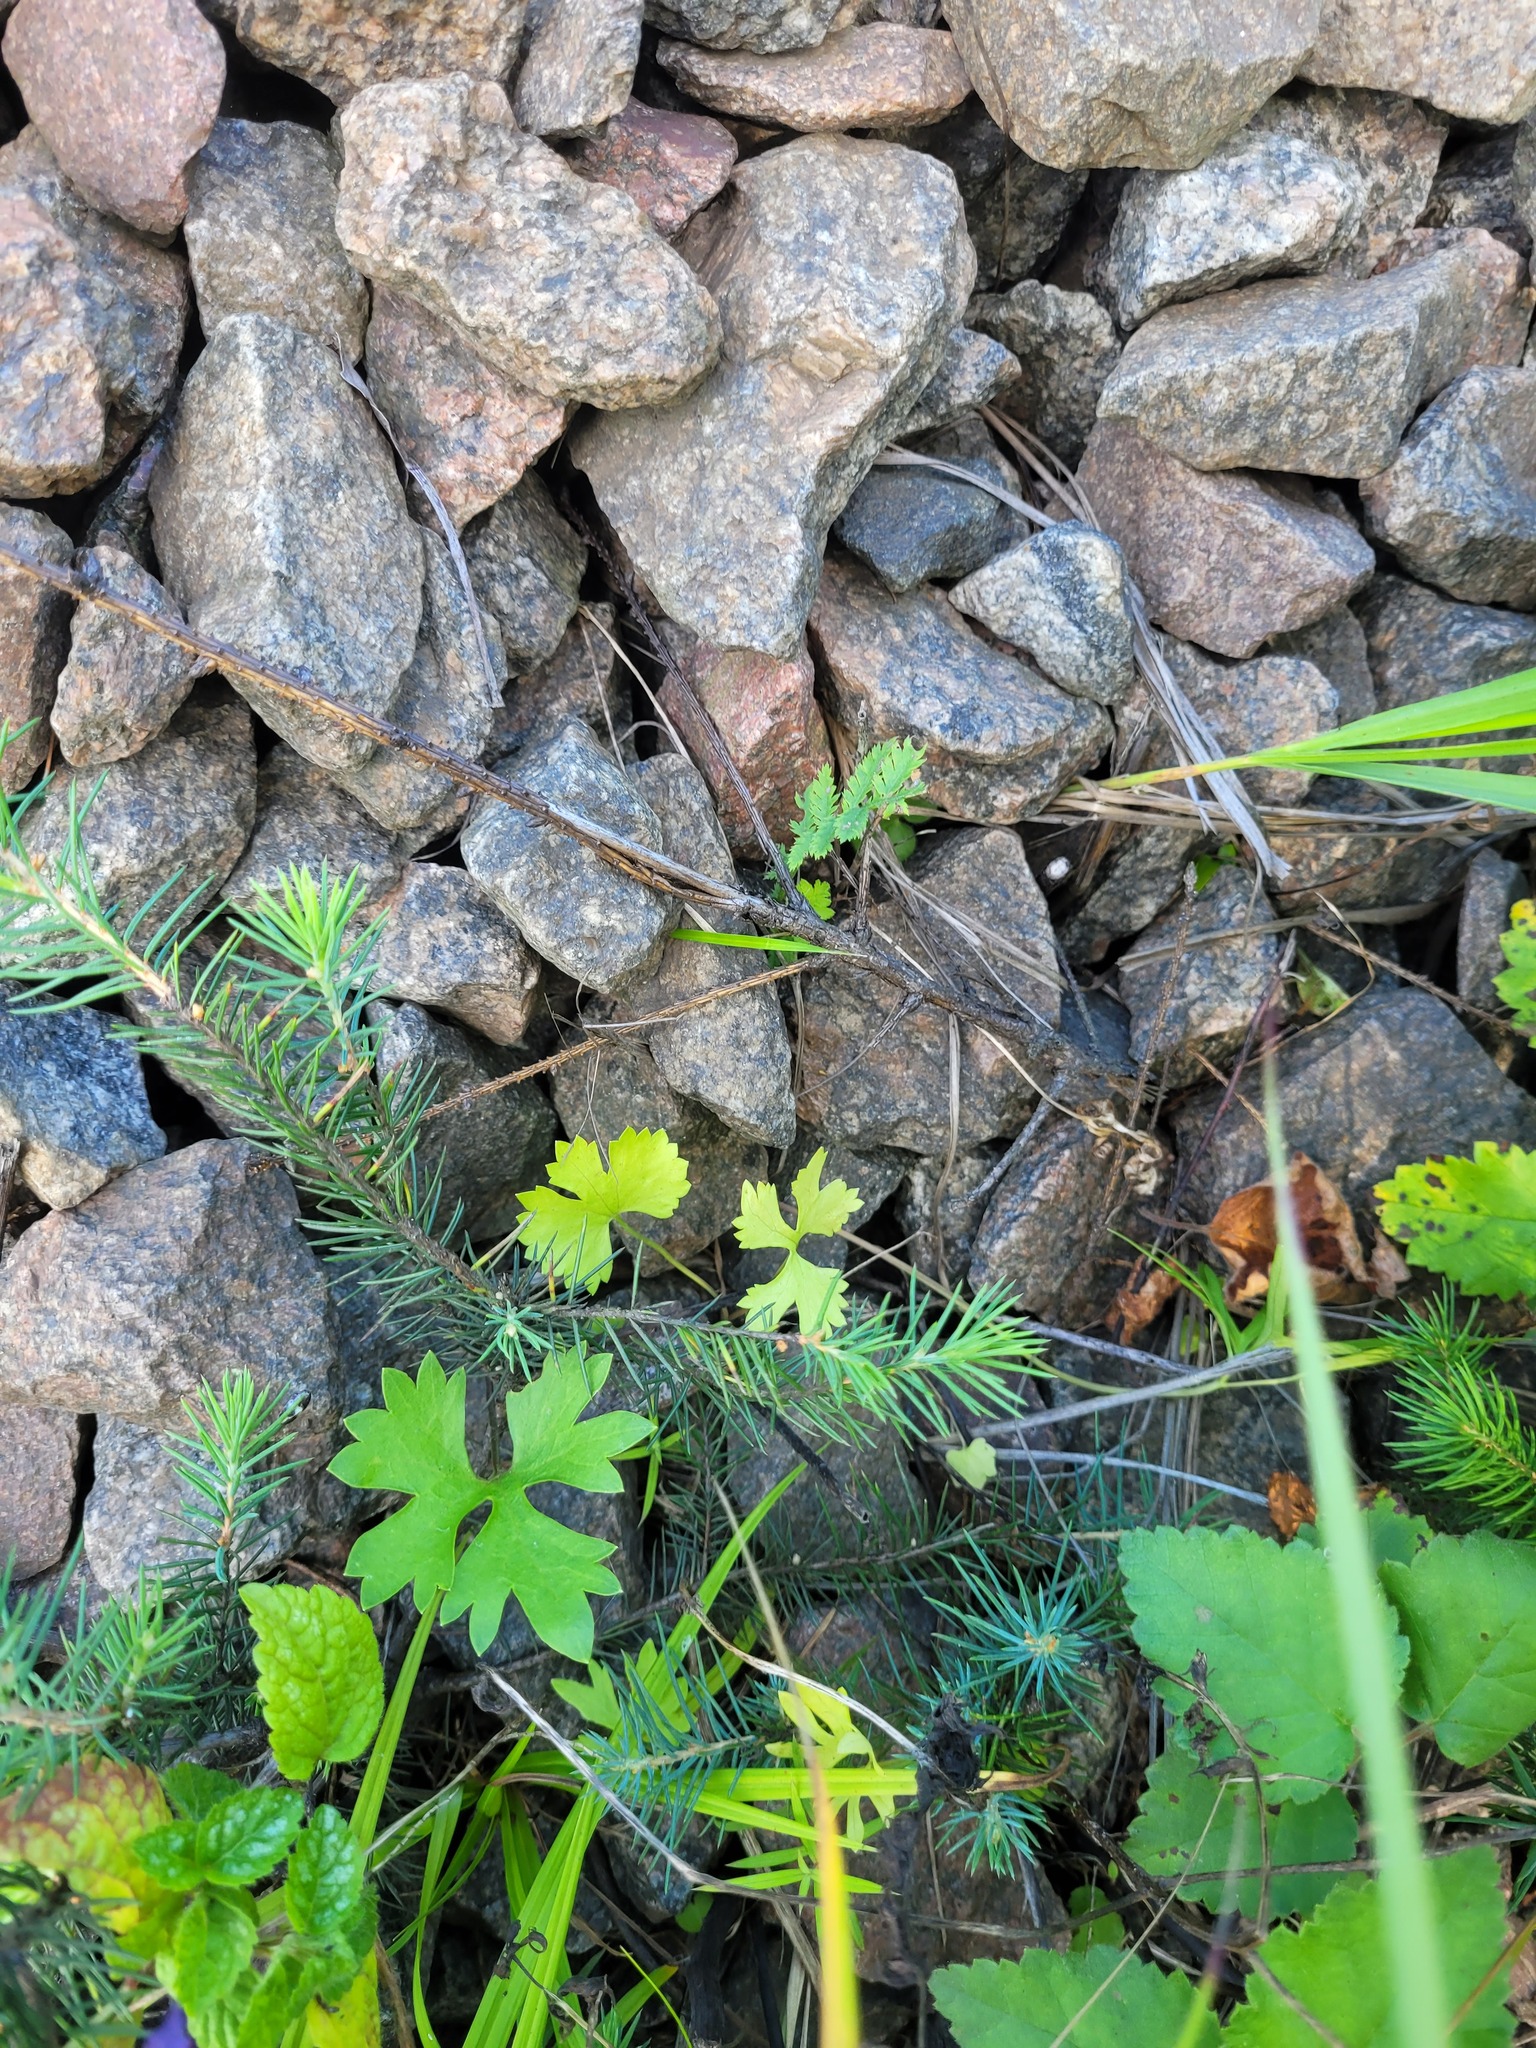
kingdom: Plantae
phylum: Tracheophyta
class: Magnoliopsida
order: Ranunculales
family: Ranunculaceae
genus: Ranunculus
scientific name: Ranunculus auricomus
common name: Goldilocks buttercup
